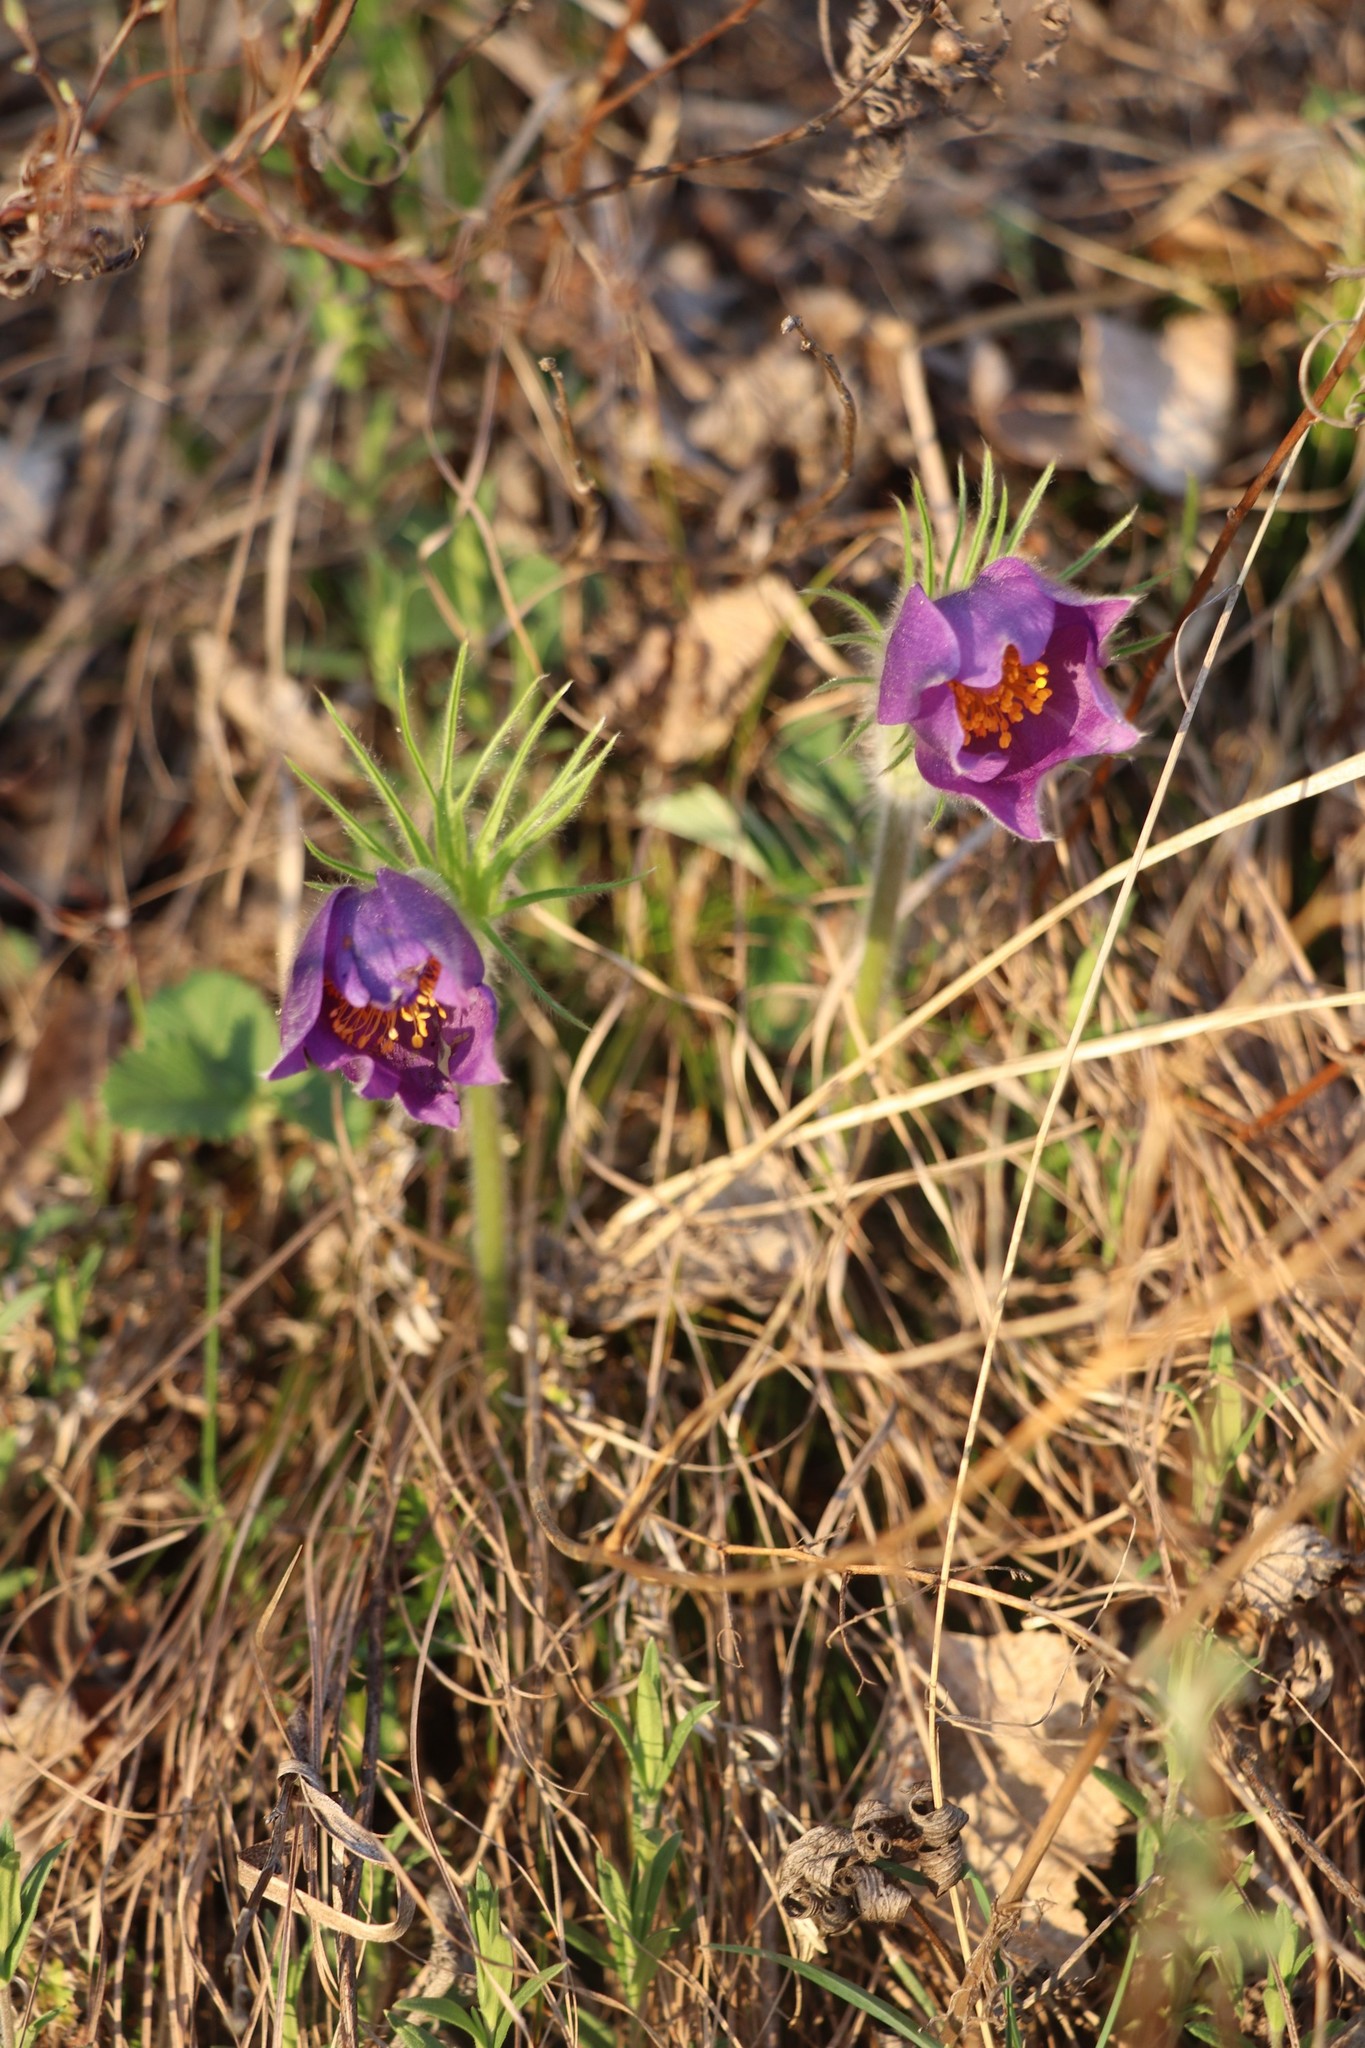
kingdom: Plantae
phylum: Tracheophyta
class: Magnoliopsida
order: Ranunculales
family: Ranunculaceae
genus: Pulsatilla
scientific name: Pulsatilla patens
